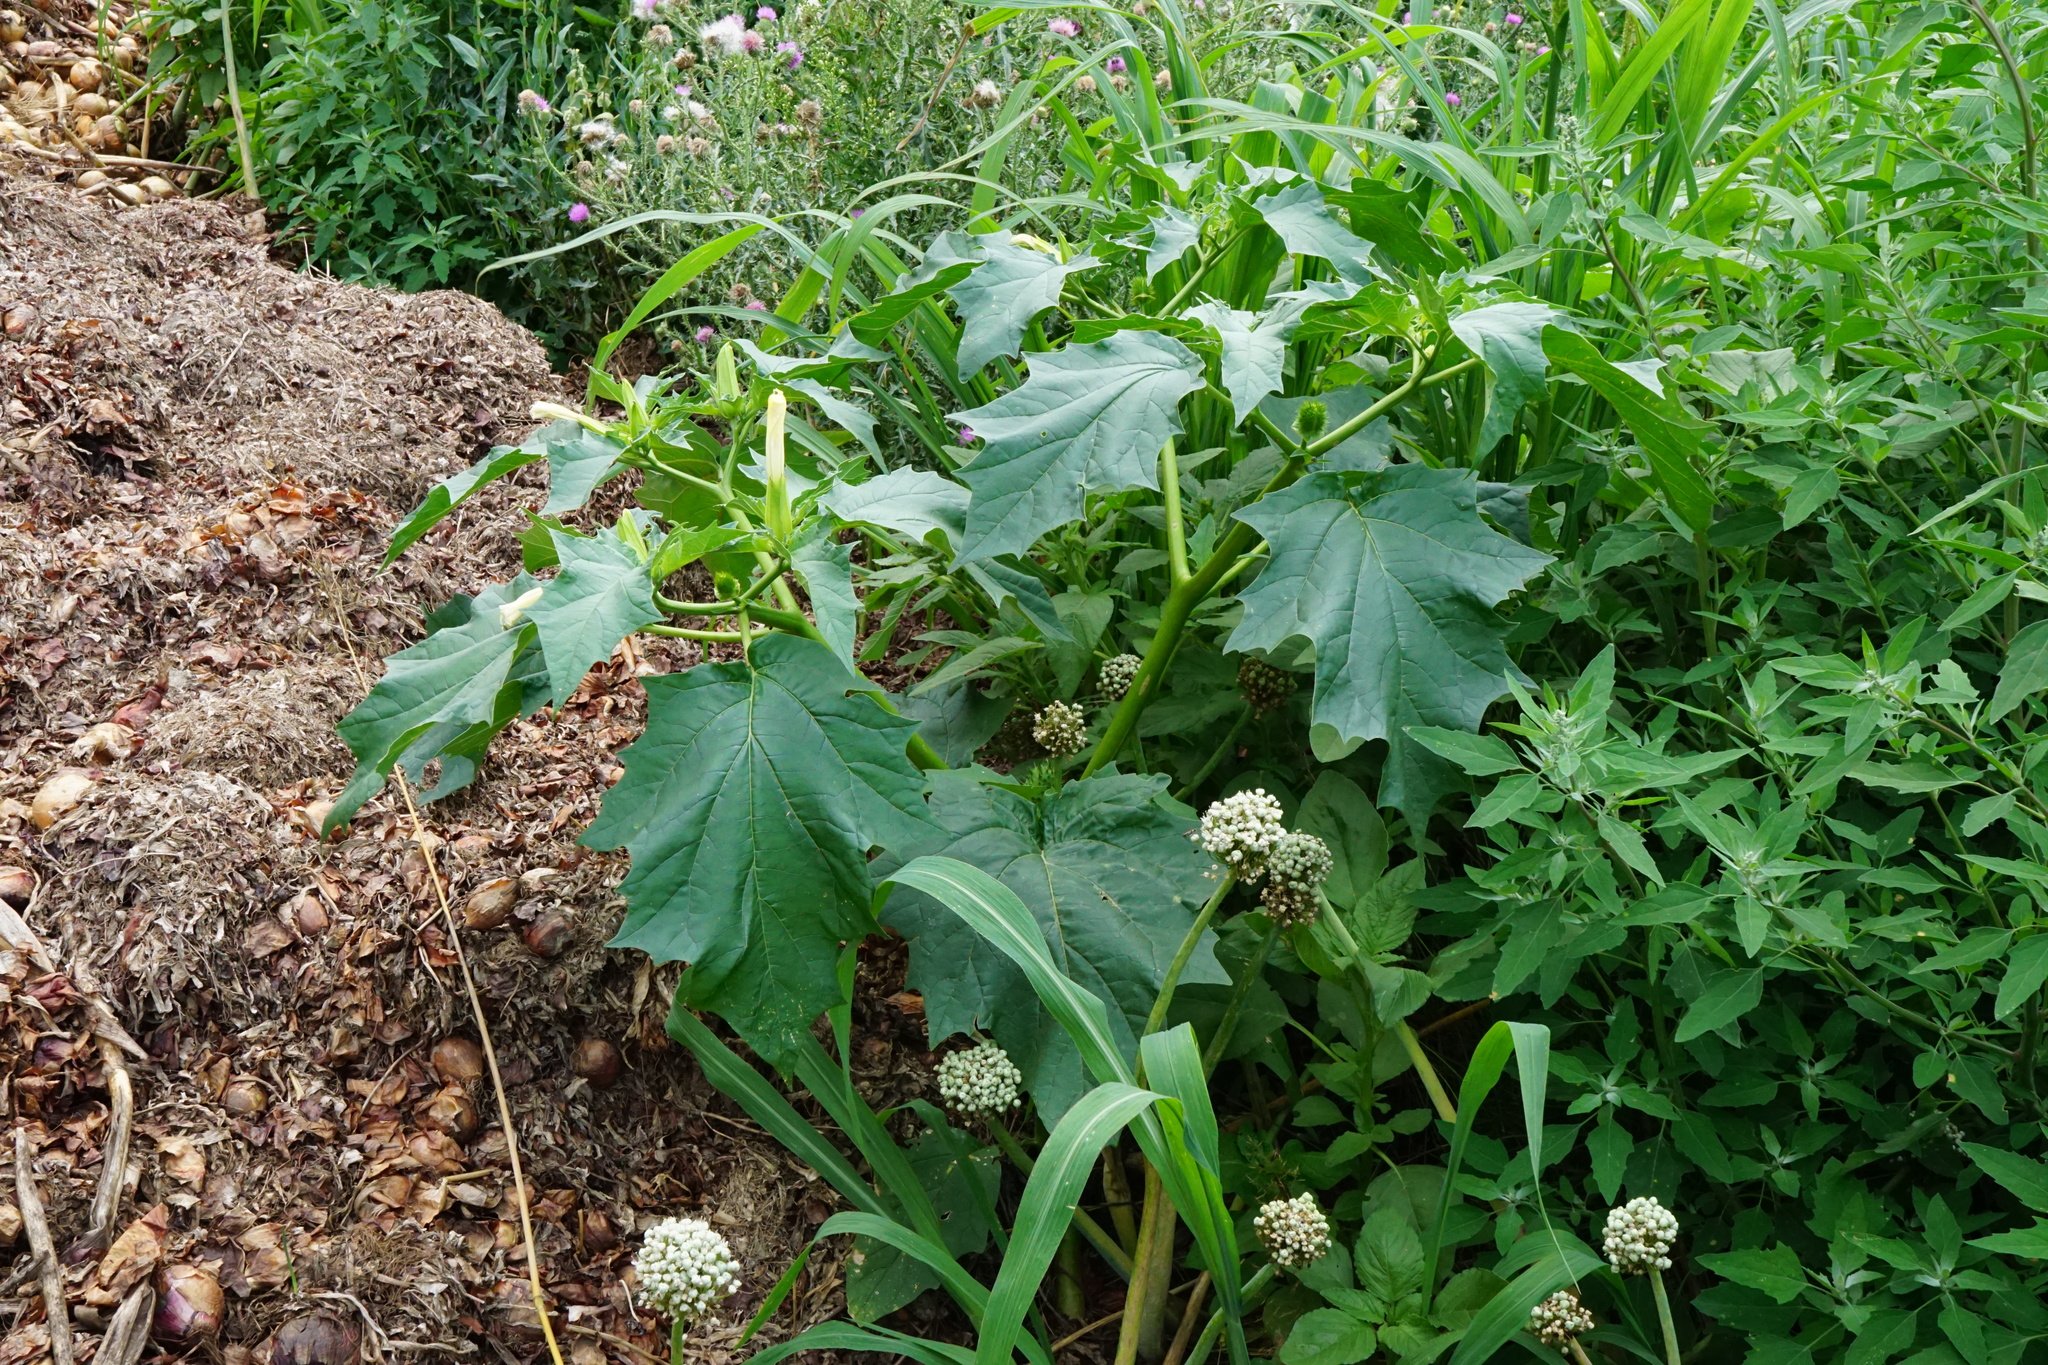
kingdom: Plantae
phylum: Tracheophyta
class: Magnoliopsida
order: Solanales
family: Solanaceae
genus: Datura
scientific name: Datura stramonium
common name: Thorn-apple
